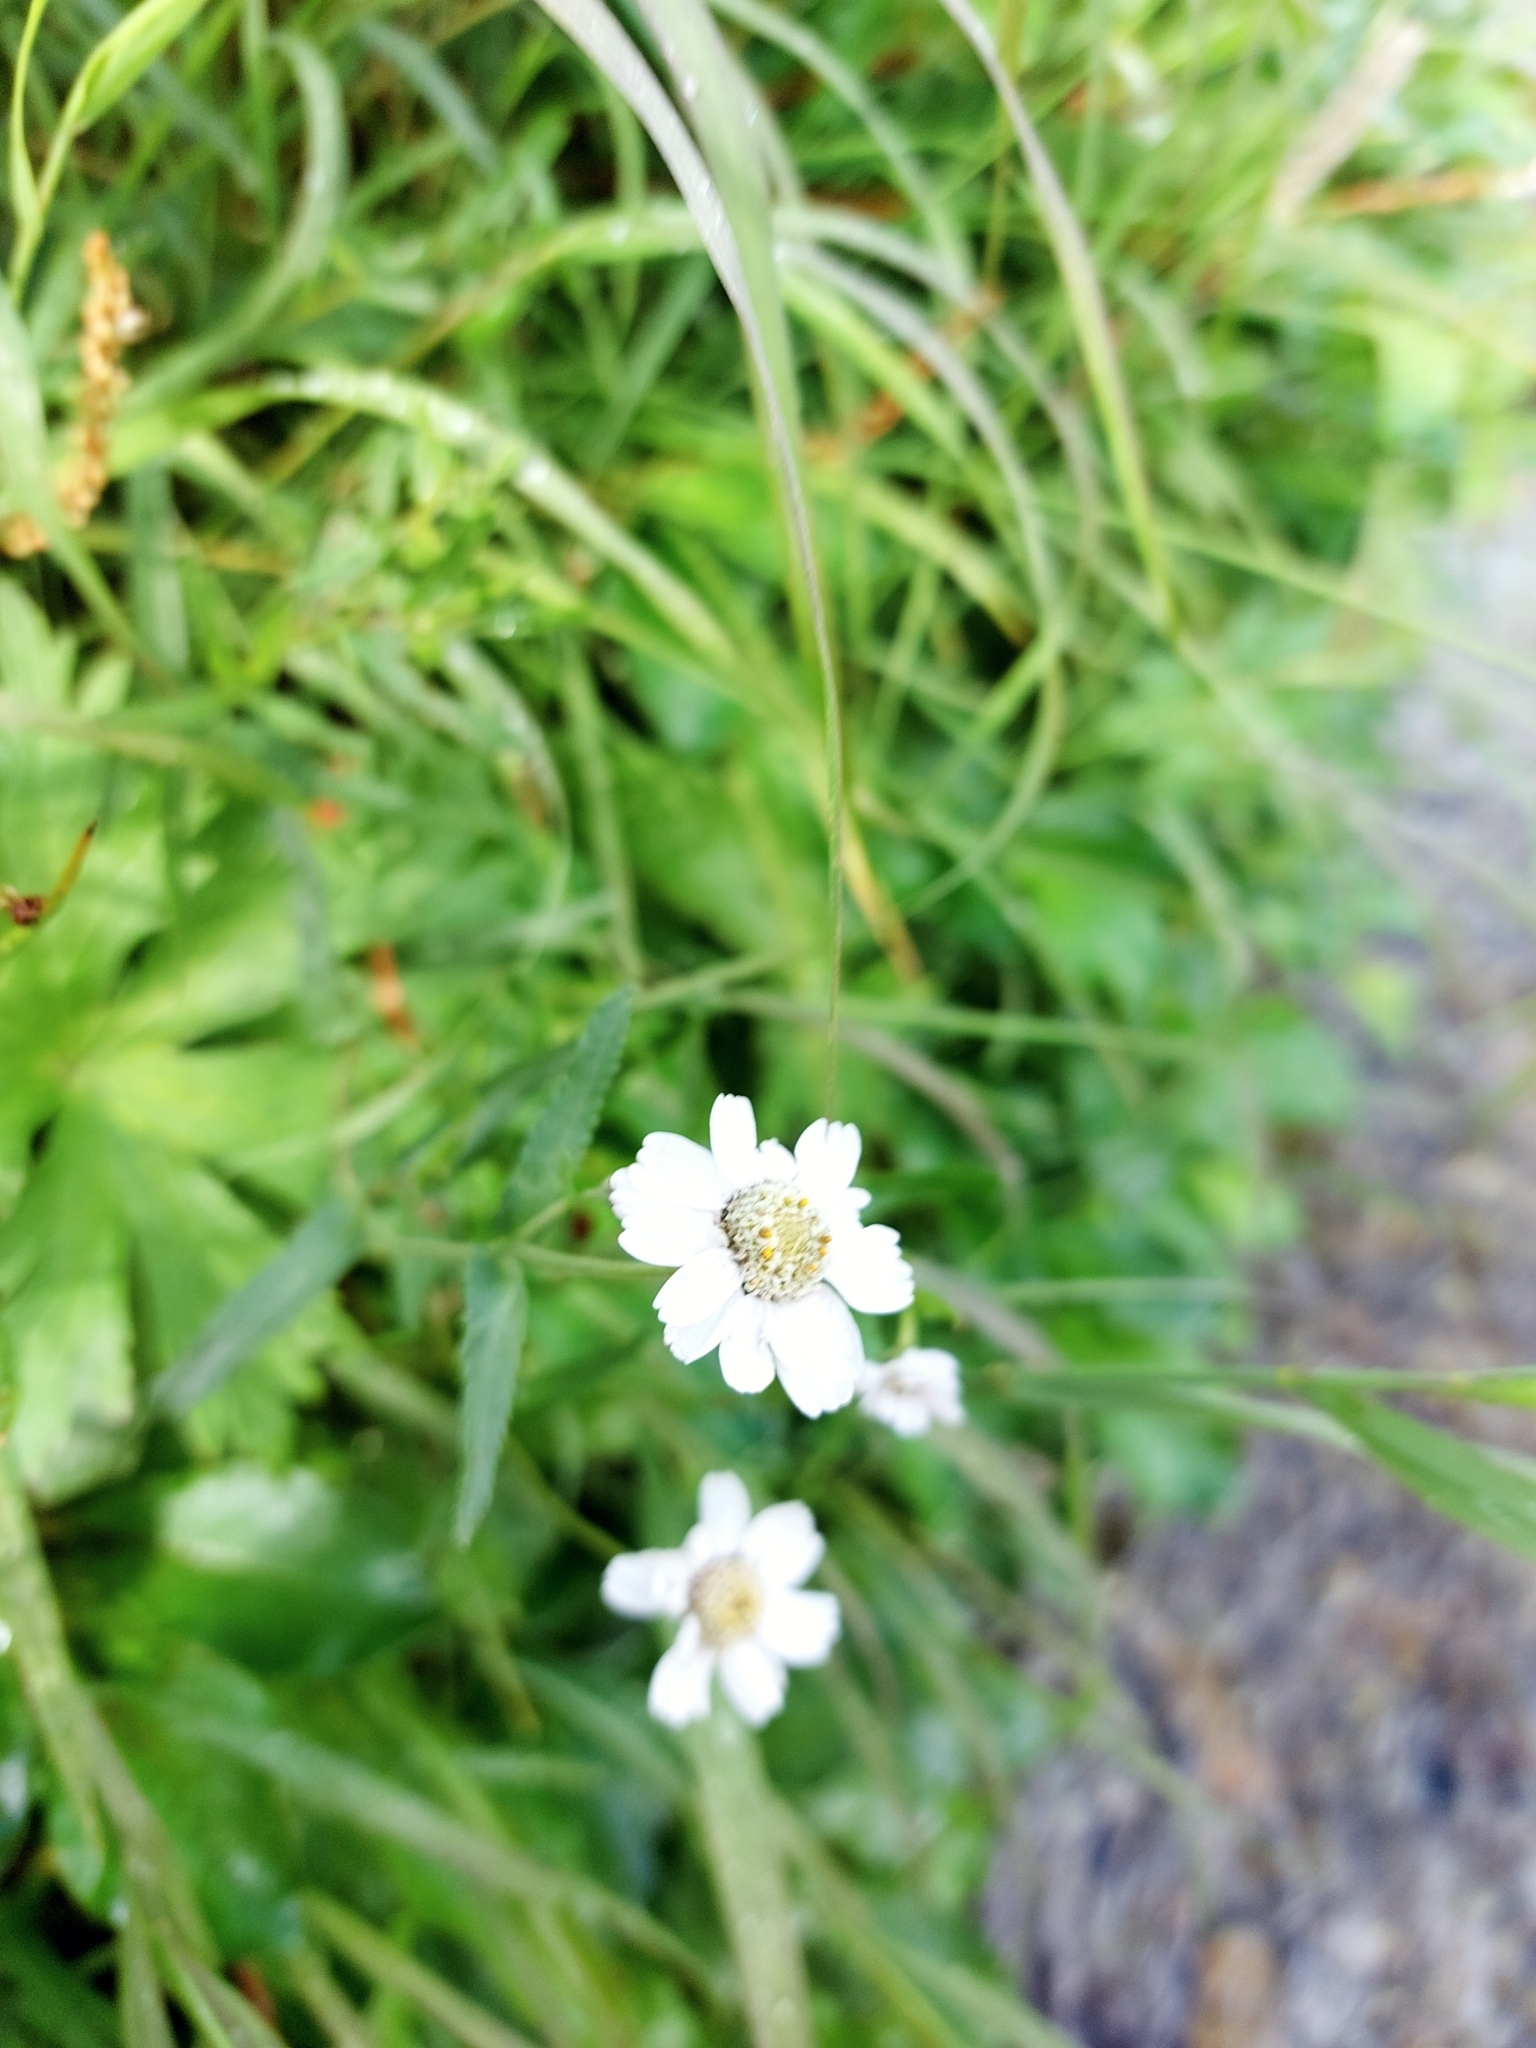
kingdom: Plantae
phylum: Tracheophyta
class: Magnoliopsida
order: Asterales
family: Asteraceae
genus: Achillea
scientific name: Achillea alpina
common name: Siberian yarrow
